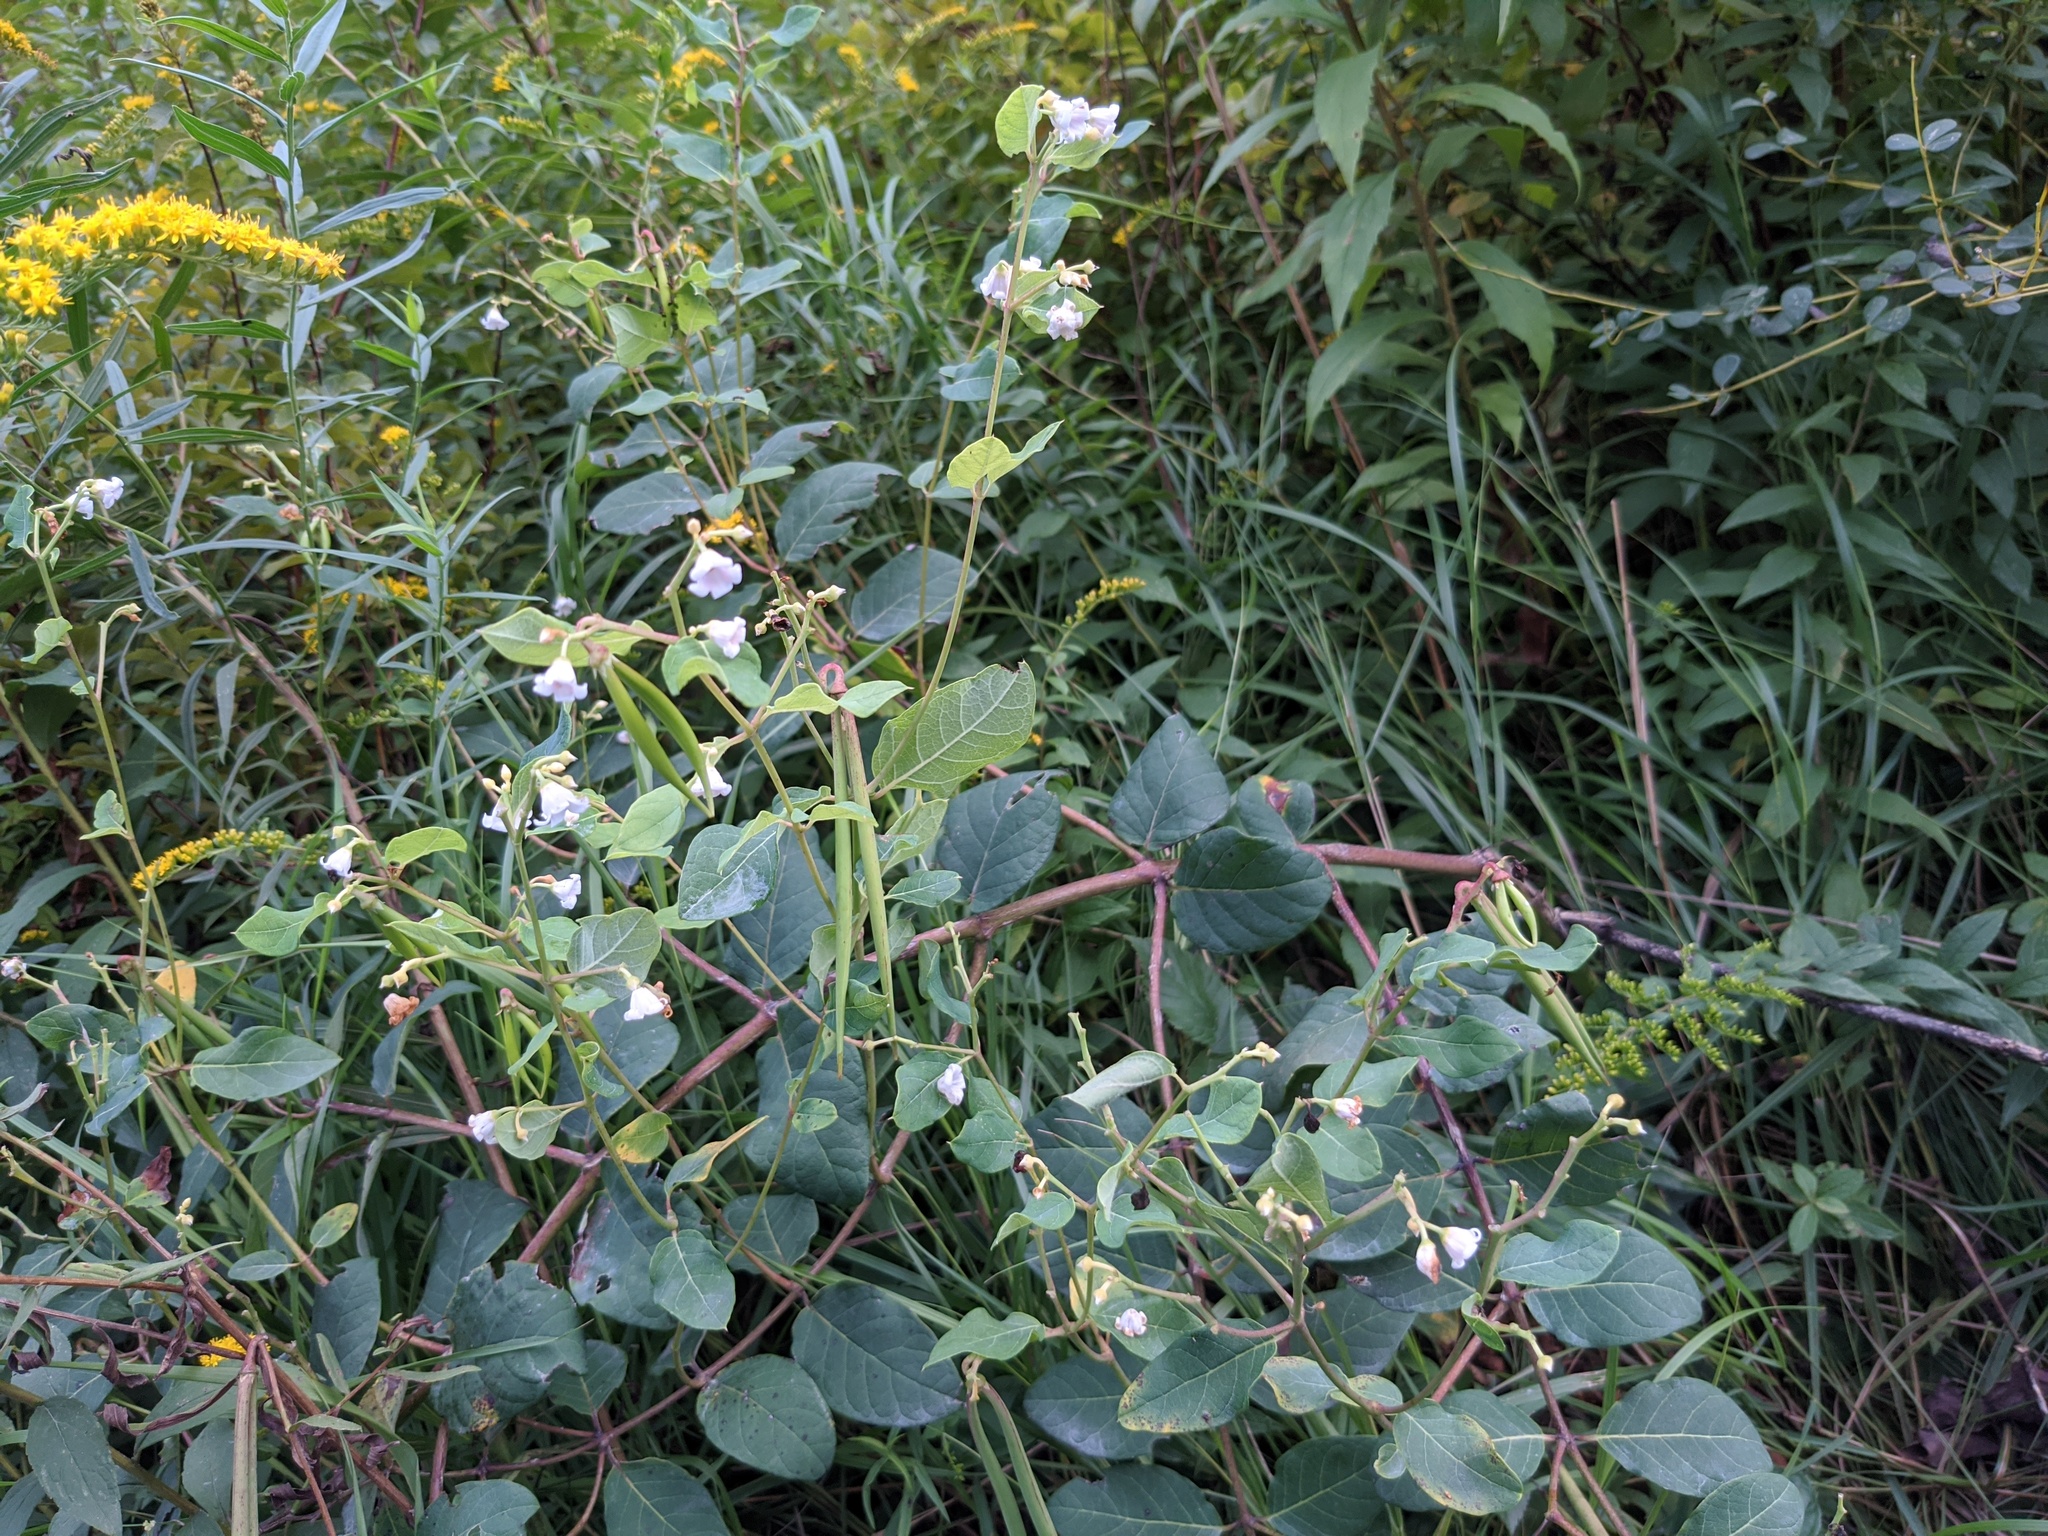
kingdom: Plantae
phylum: Tracheophyta
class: Magnoliopsida
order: Gentianales
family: Apocynaceae
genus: Apocynum
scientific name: Apocynum androsaemifolium
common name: Spreading dogbane
